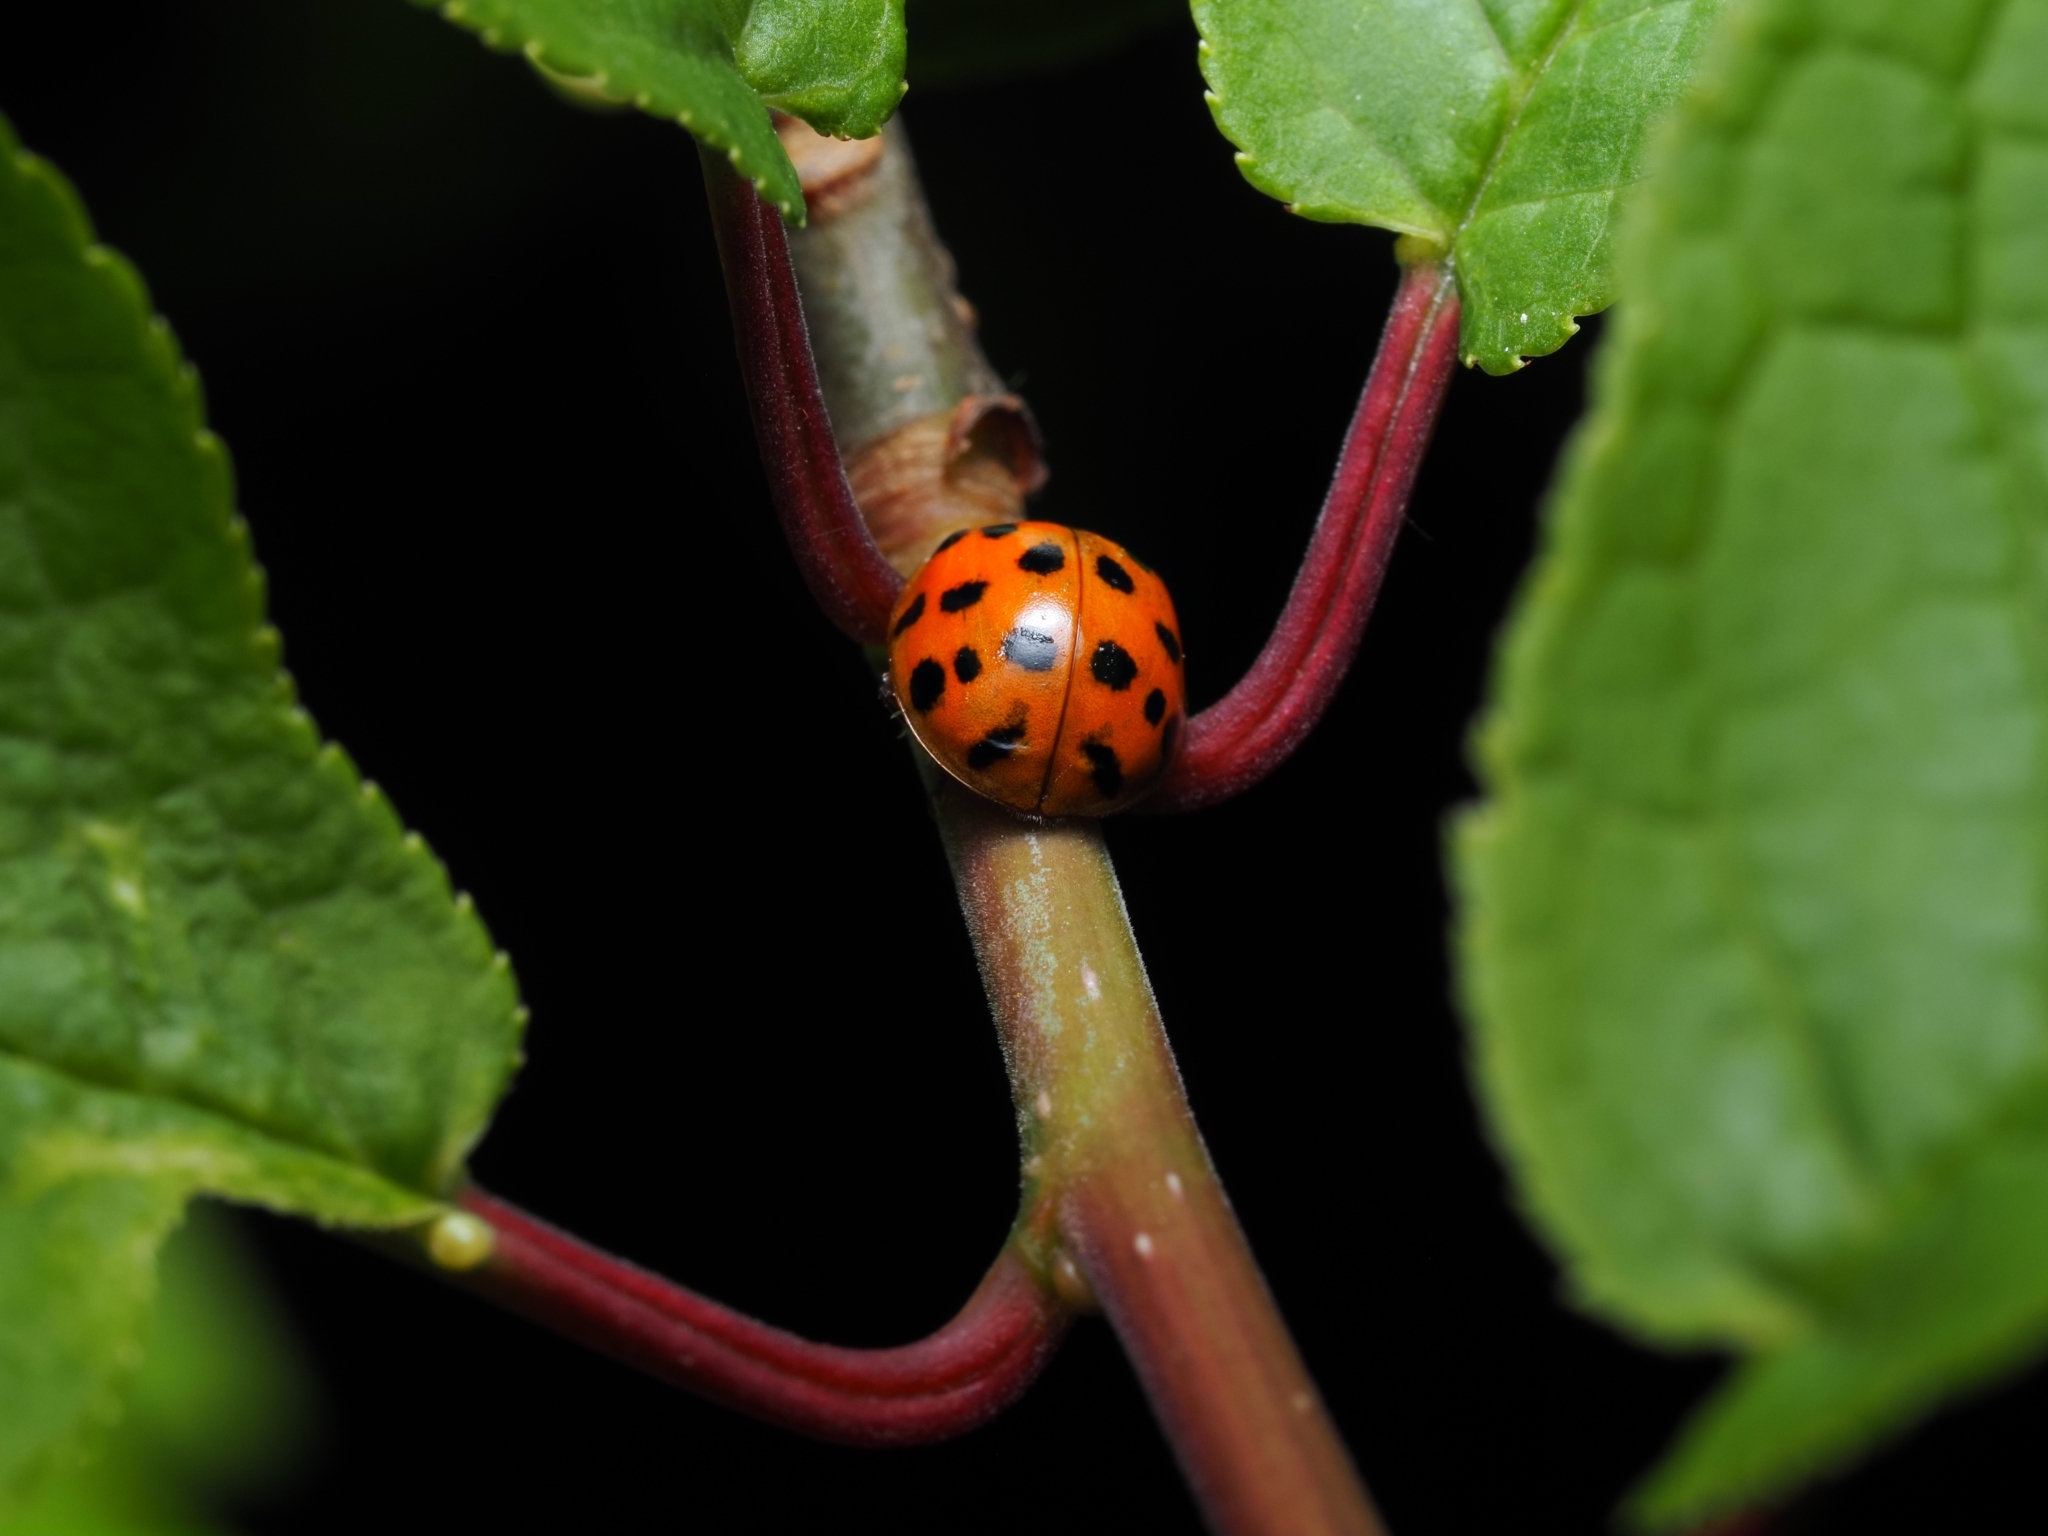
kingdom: Animalia
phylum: Arthropoda
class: Insecta
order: Coleoptera
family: Coccinellidae
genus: Harmonia
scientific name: Harmonia axyridis
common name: Harlequin ladybird
